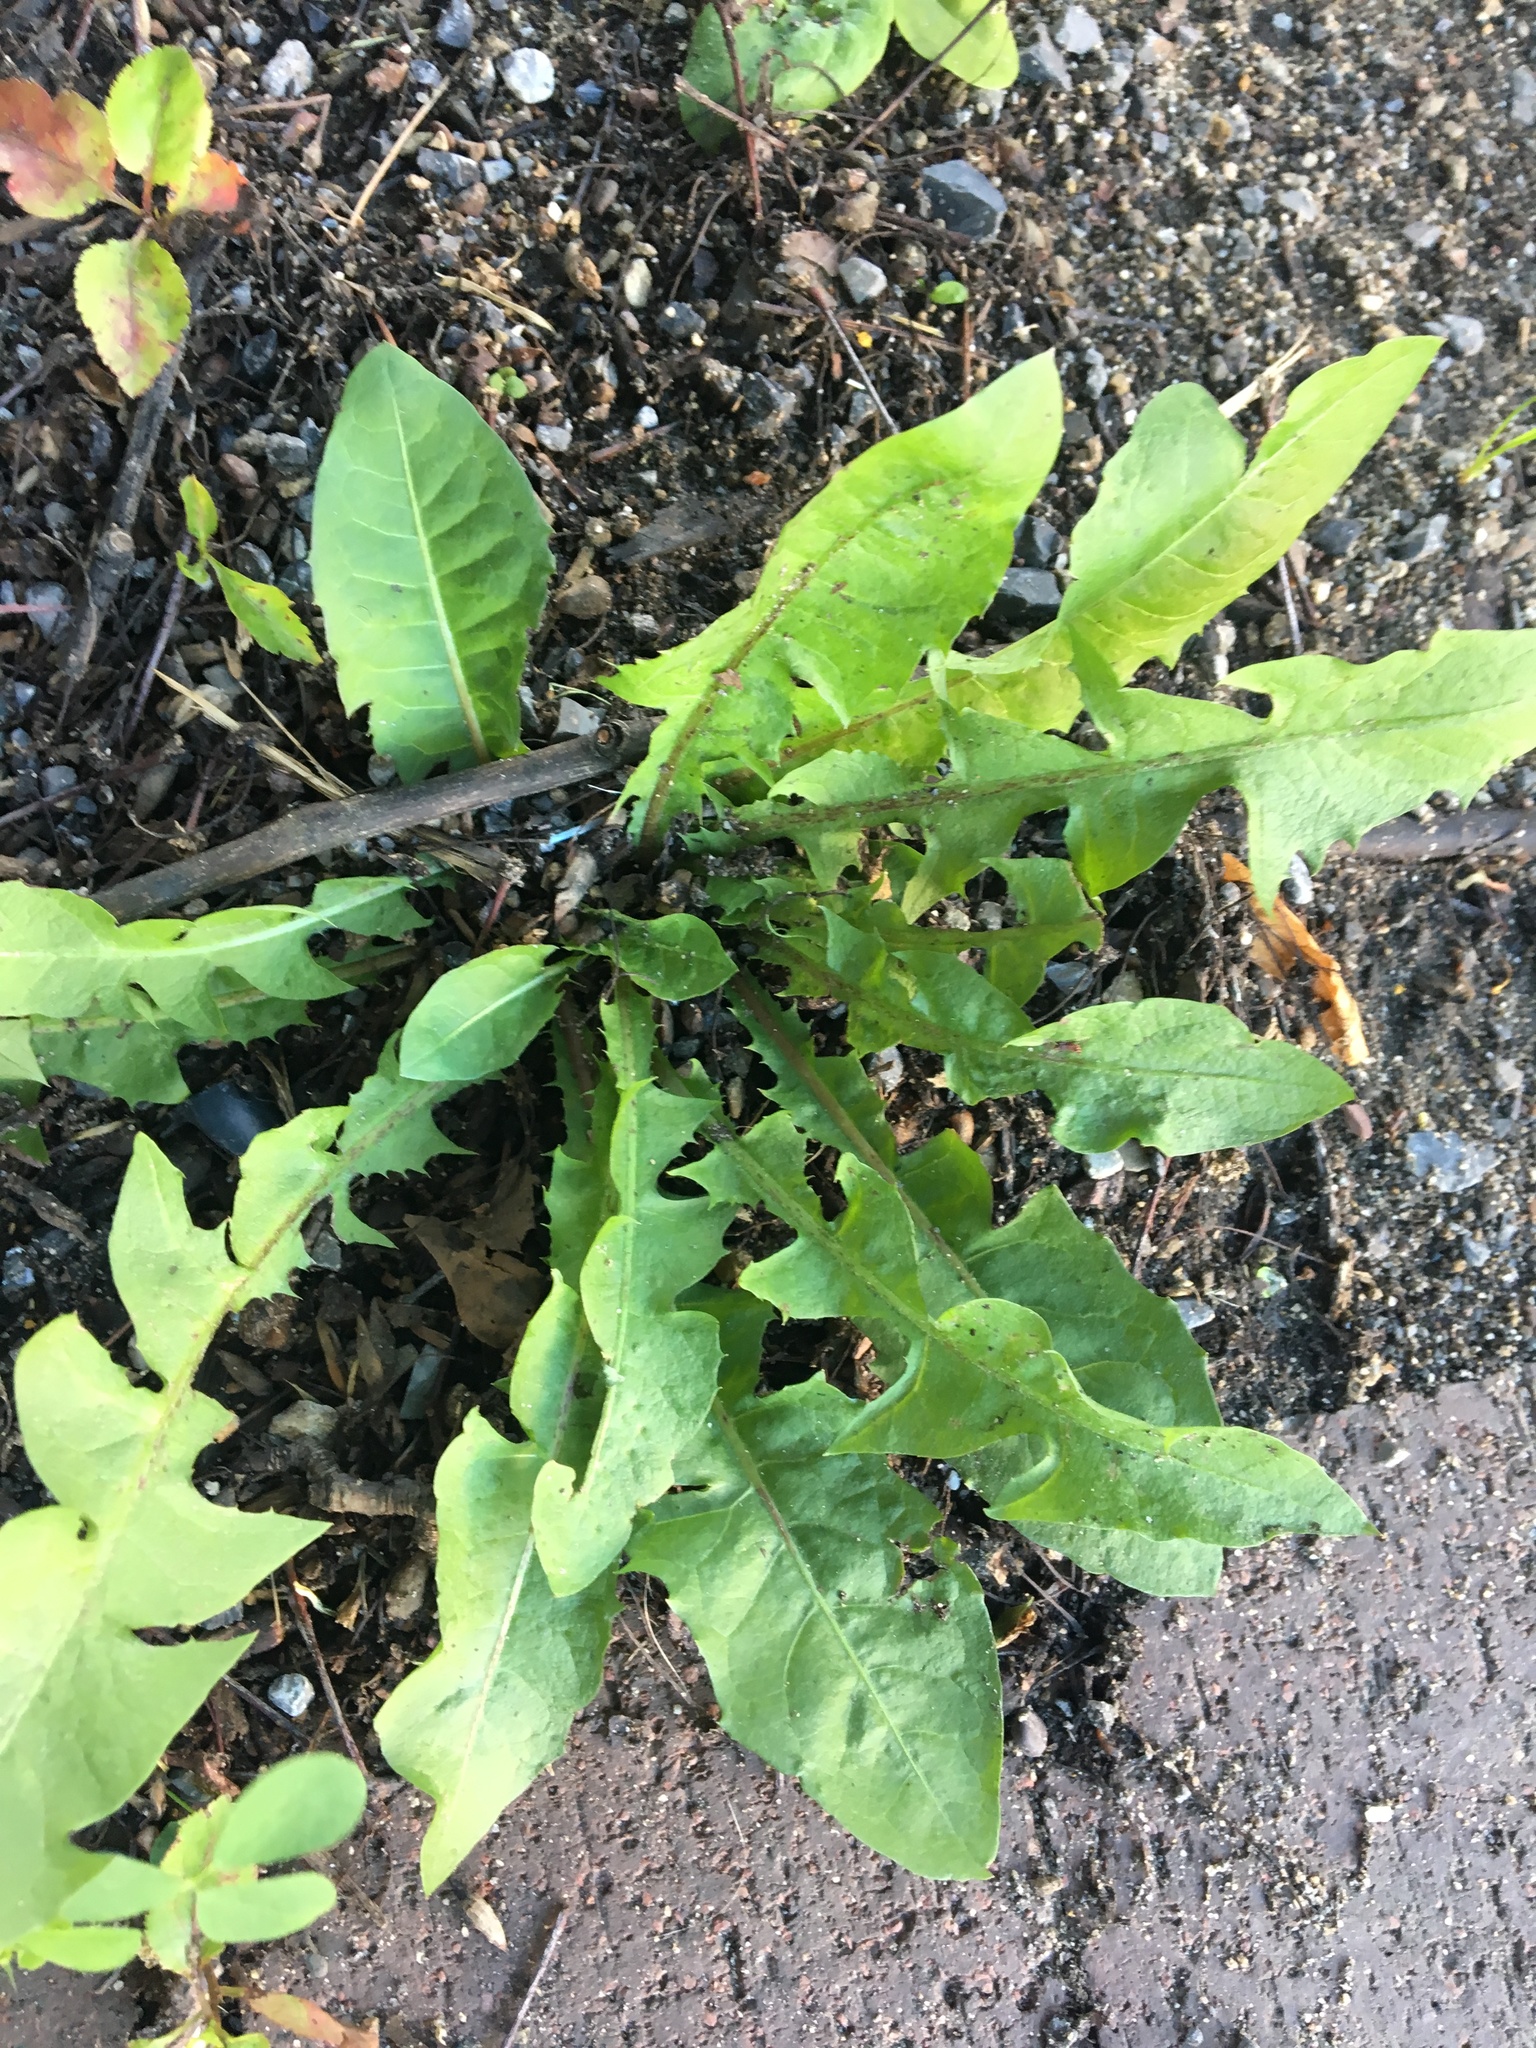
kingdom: Plantae
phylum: Tracheophyta
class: Magnoliopsida
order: Asterales
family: Asteraceae
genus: Taraxacum
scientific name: Taraxacum officinale
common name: Common dandelion
